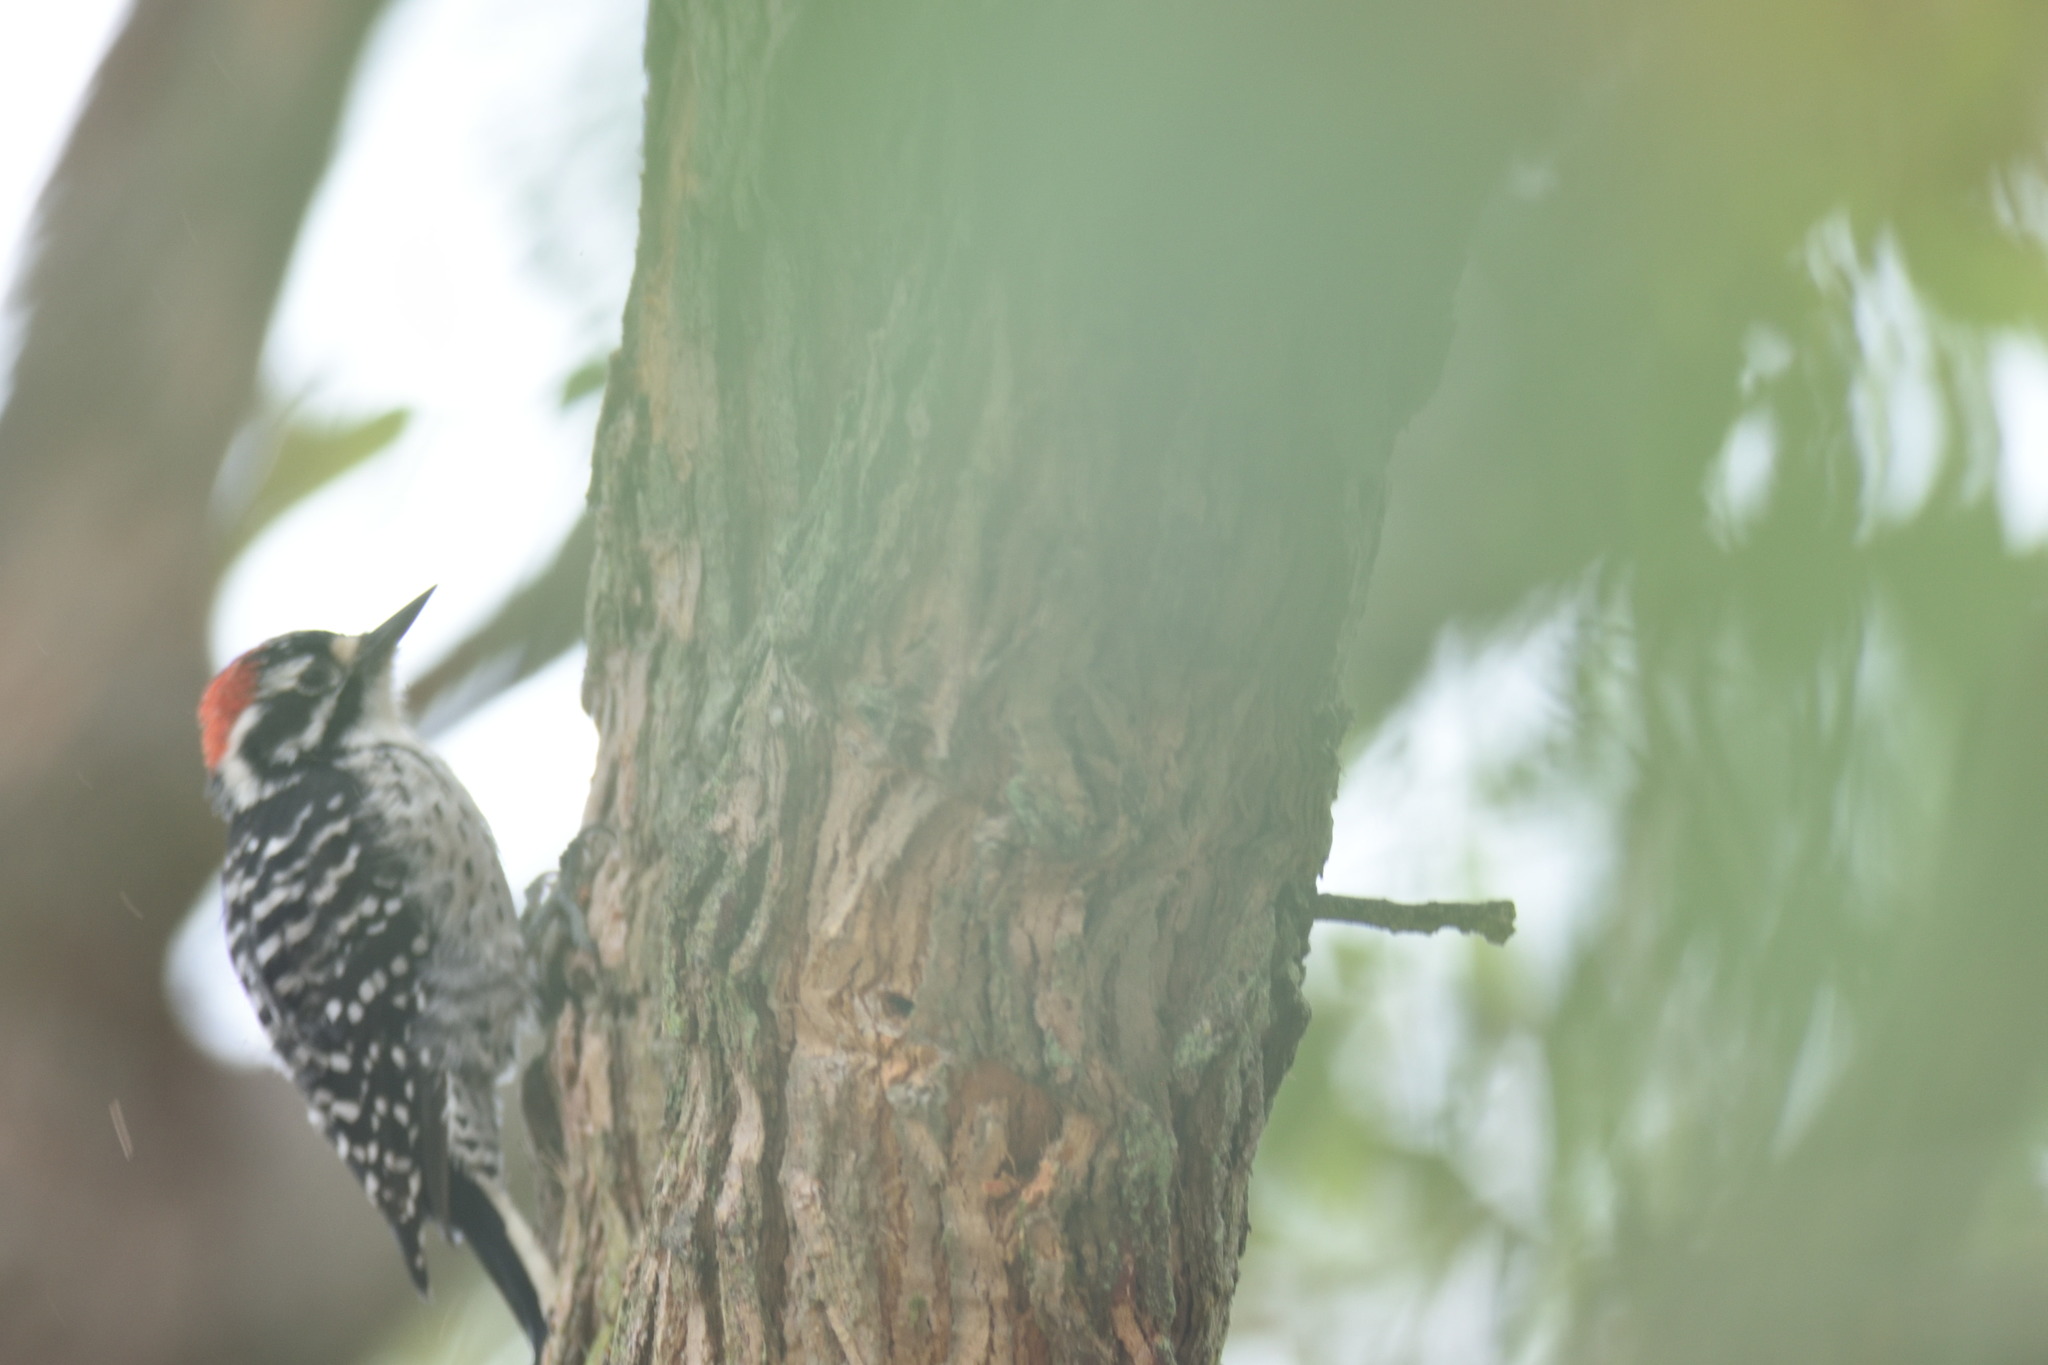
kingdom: Animalia
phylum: Chordata
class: Aves
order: Piciformes
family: Picidae
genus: Dryobates
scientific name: Dryobates nuttallii
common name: Nuttall's woodpecker
